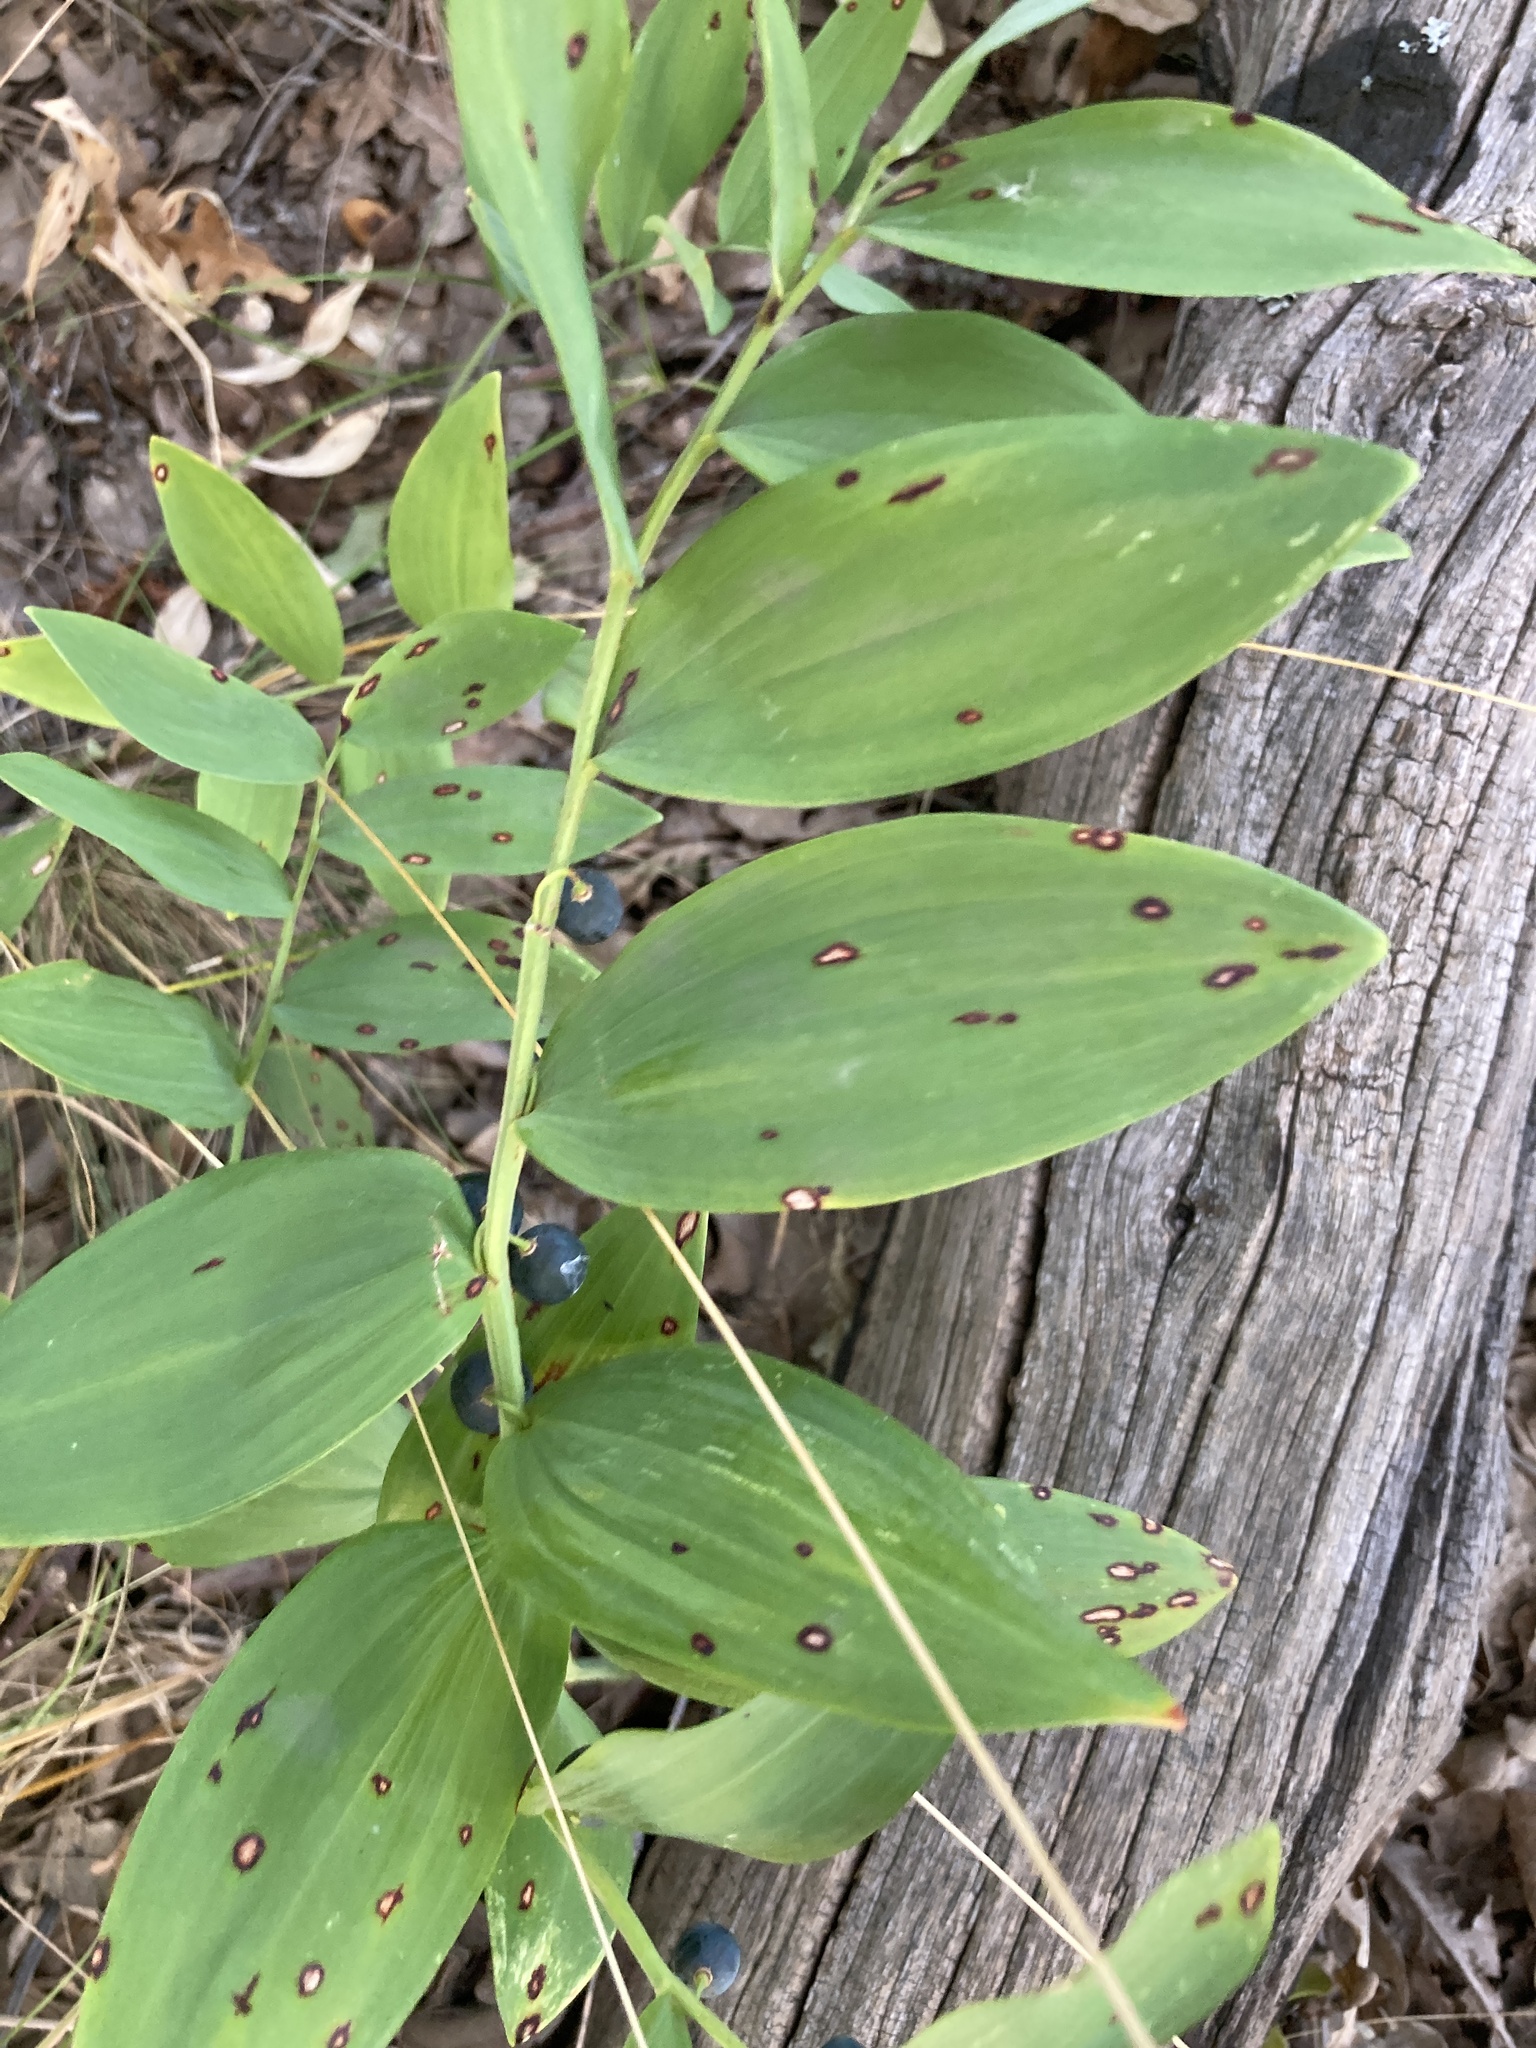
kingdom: Plantae
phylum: Tracheophyta
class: Liliopsida
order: Asparagales
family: Asparagaceae
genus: Polygonatum
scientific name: Polygonatum odoratum
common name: Angular solomon's-seal
